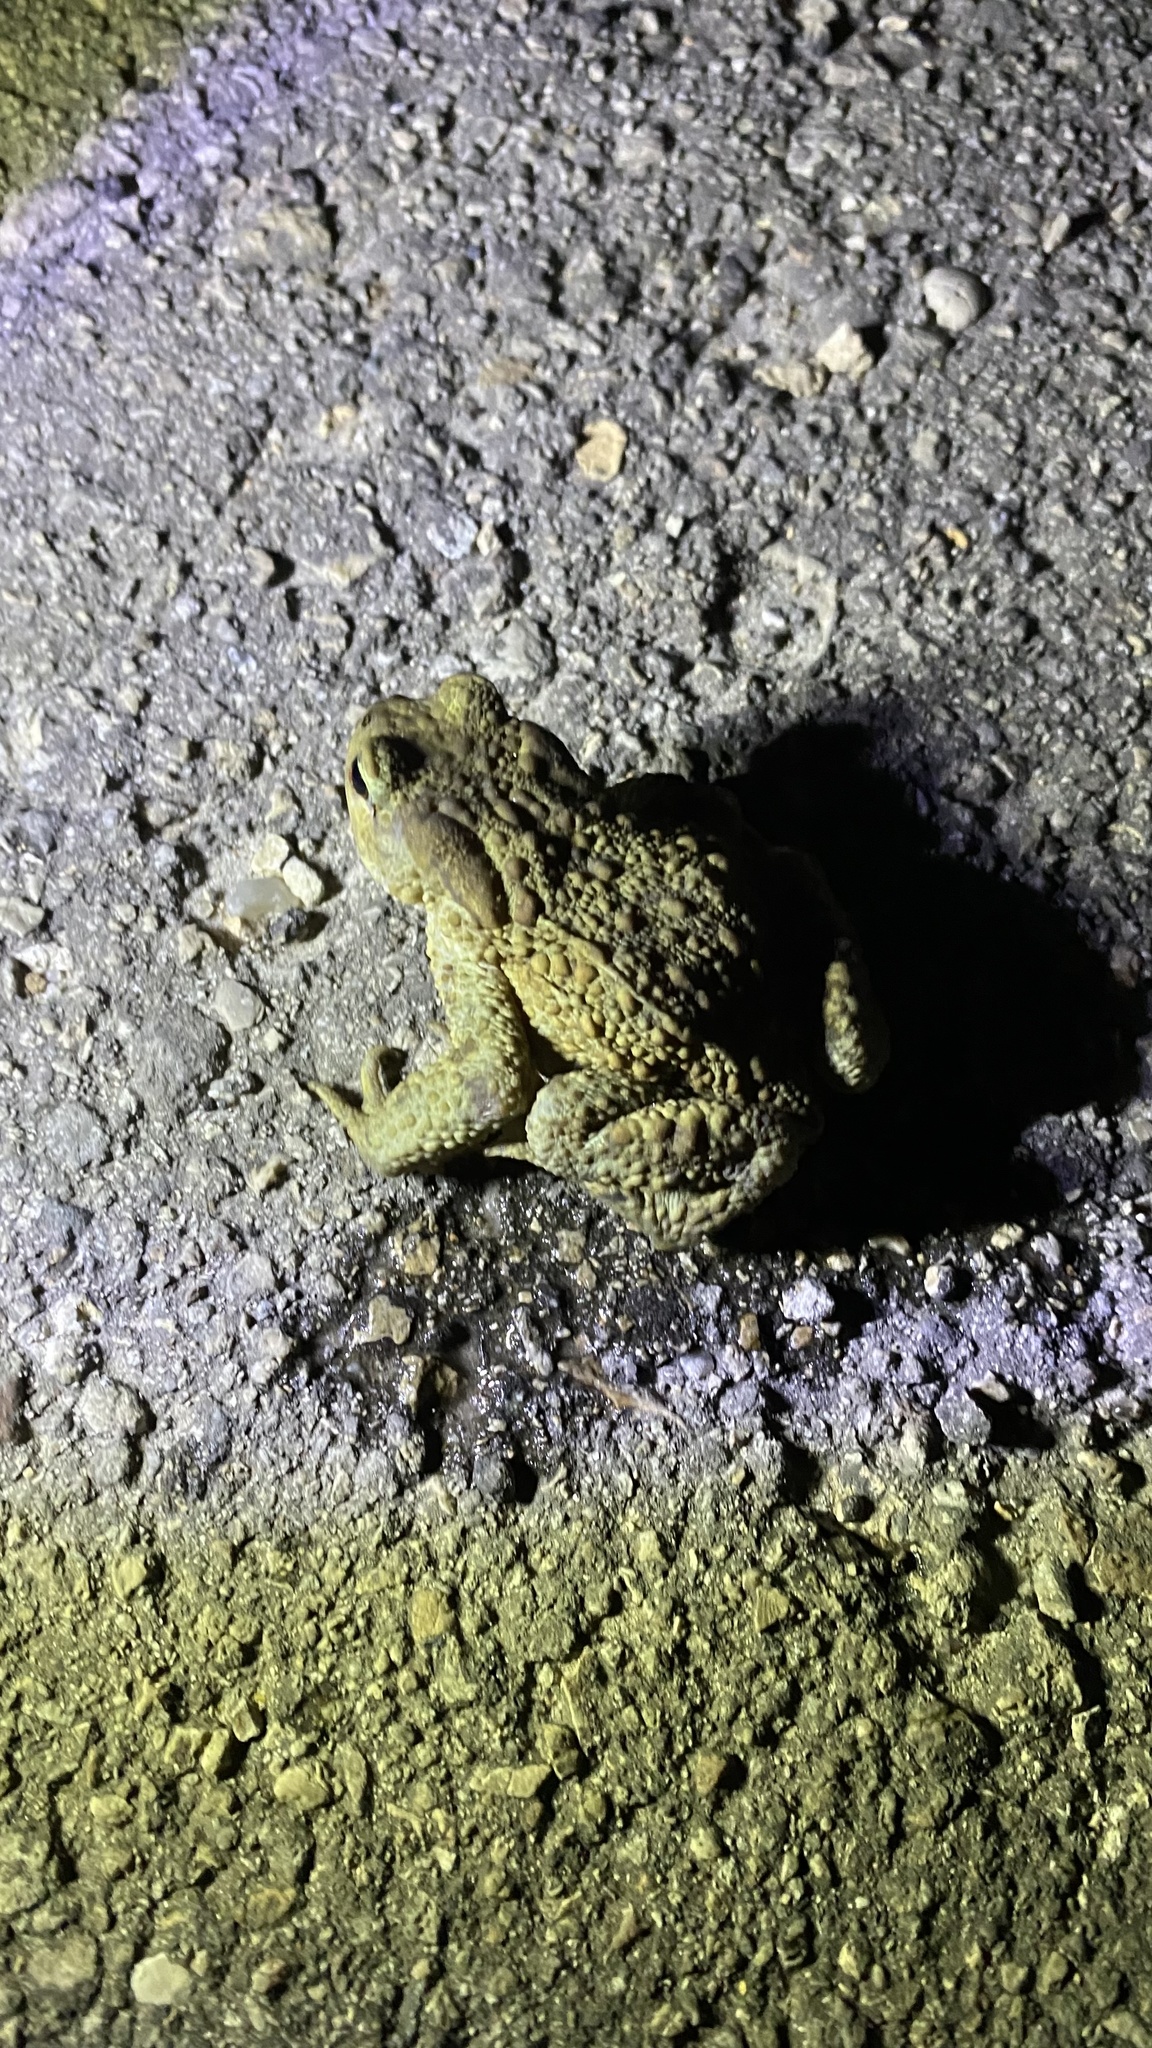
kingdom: Animalia
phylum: Chordata
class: Amphibia
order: Anura
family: Bufonidae
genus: Bufo
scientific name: Bufo bufo
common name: Common toad
